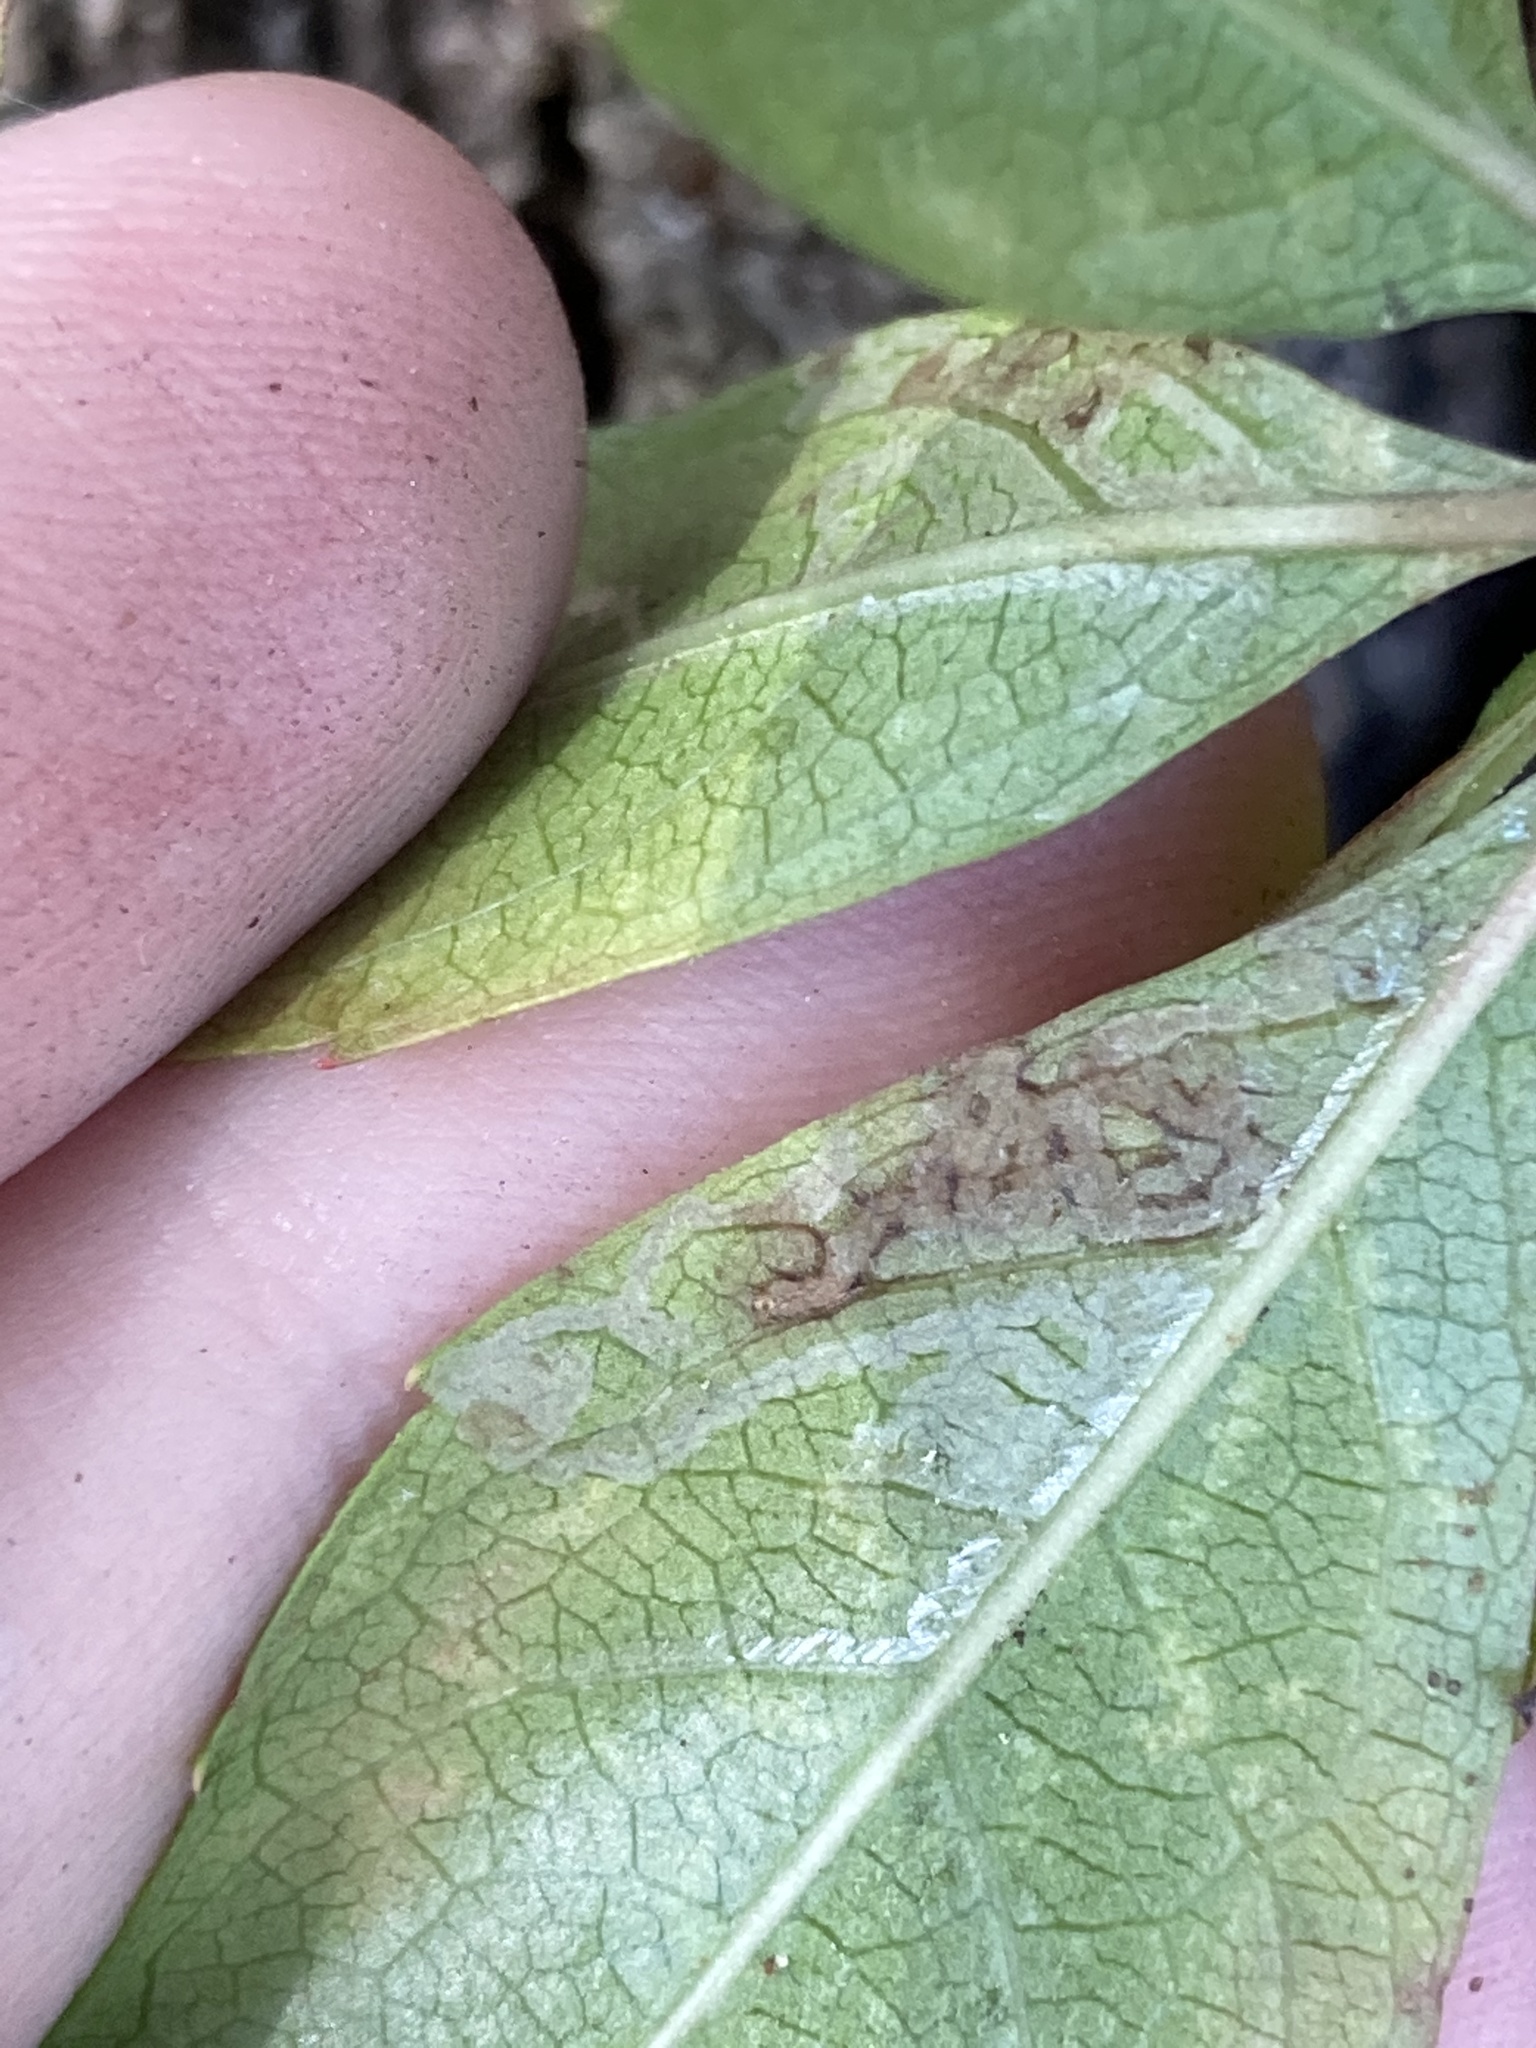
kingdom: Animalia
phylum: Arthropoda
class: Insecta
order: Lepidoptera
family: Gracillariidae
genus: Phyllocnistis
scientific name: Phyllocnistis ampelopsiella
